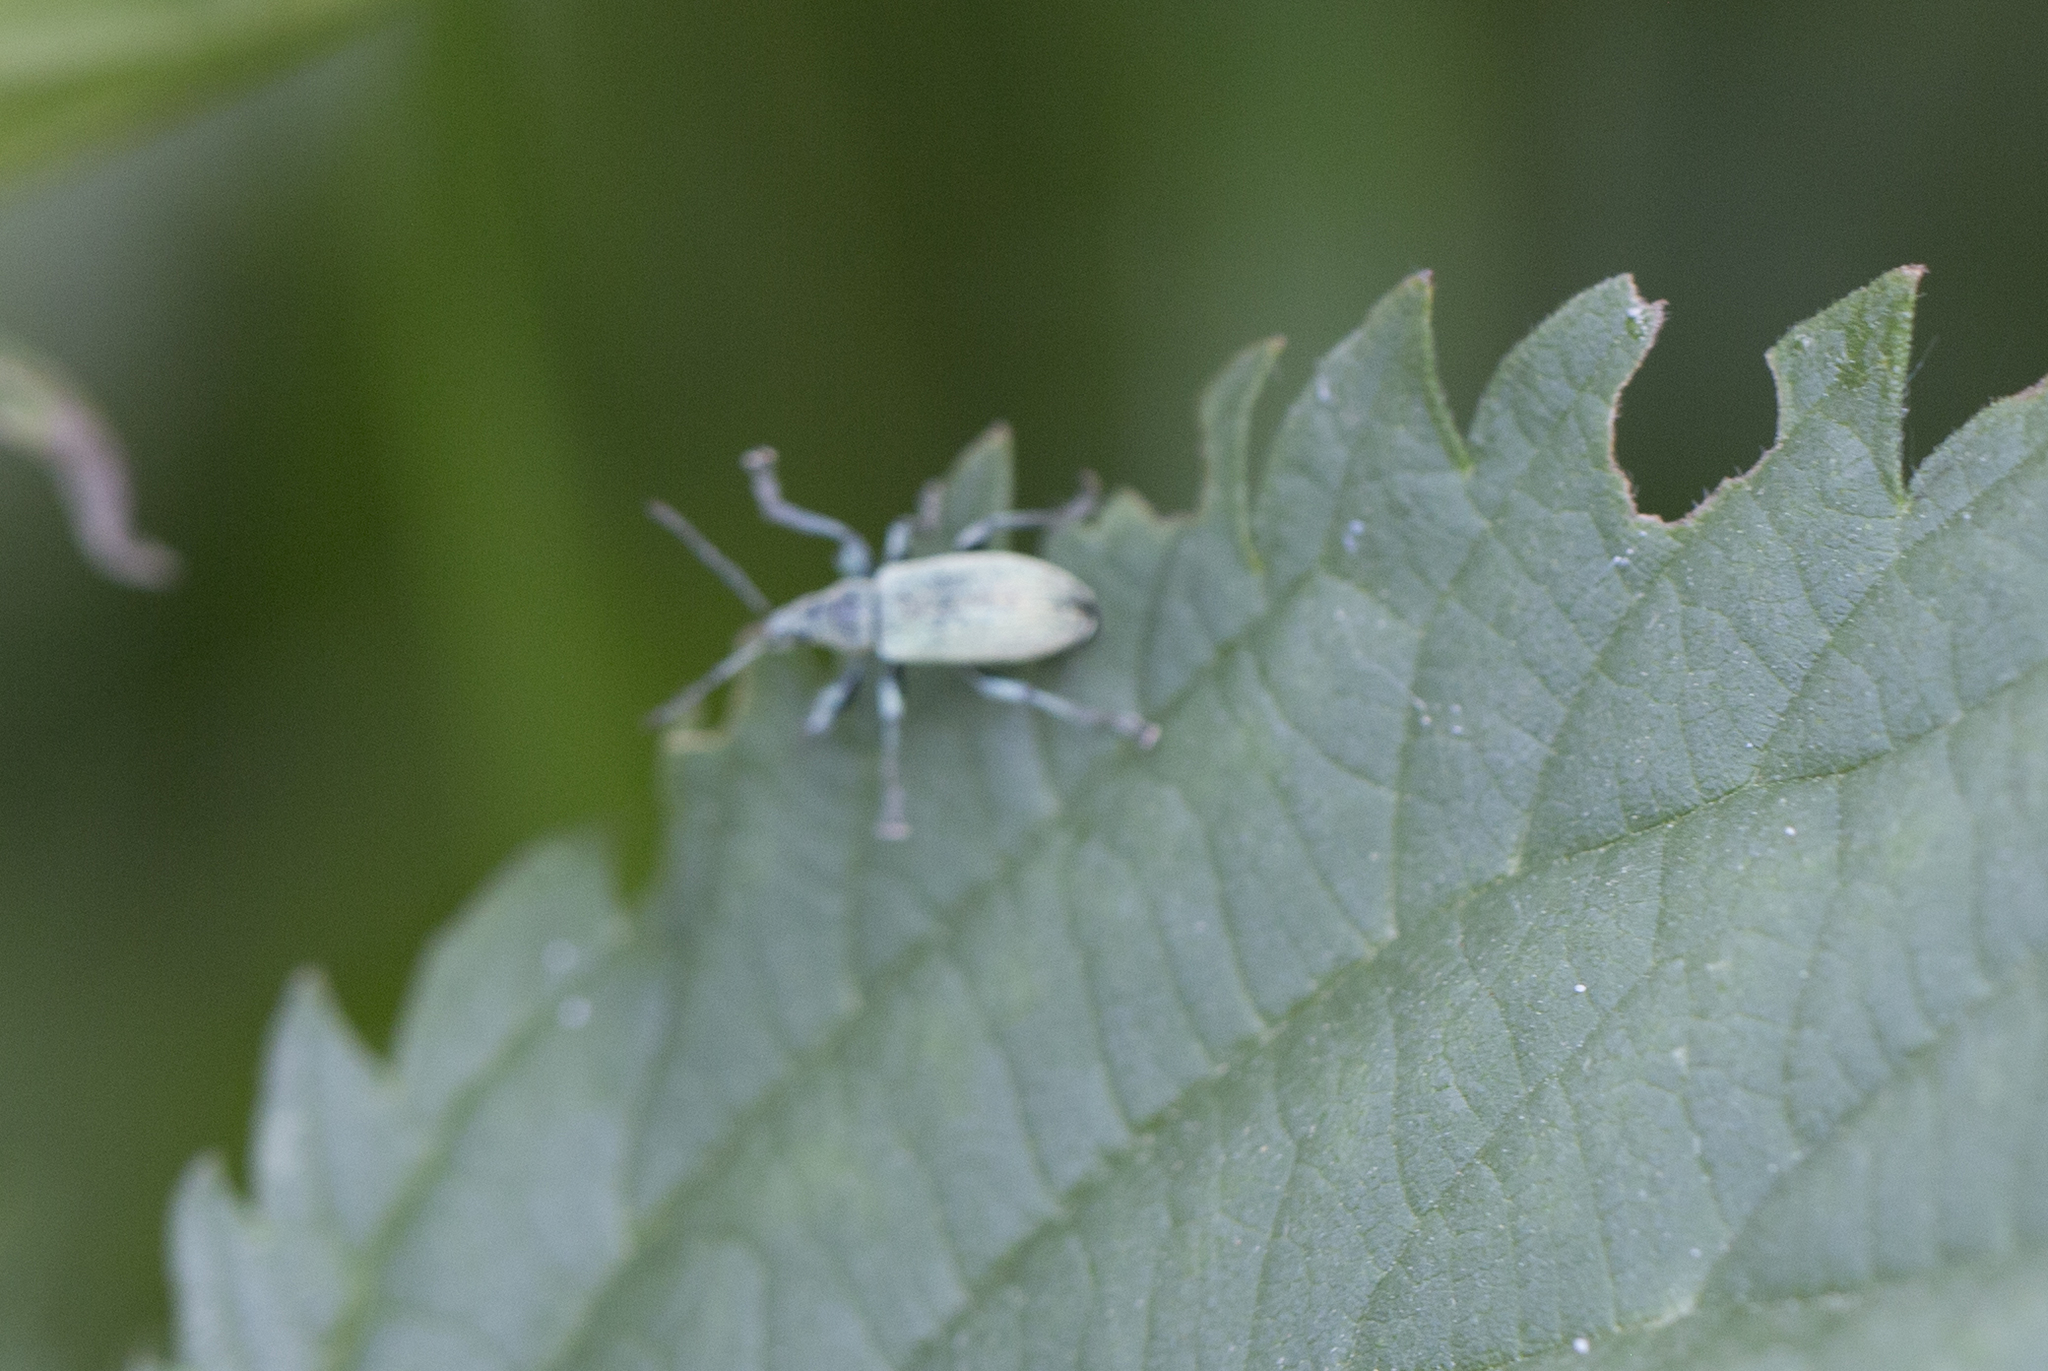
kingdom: Animalia
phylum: Arthropoda
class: Insecta
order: Coleoptera
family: Curculionidae
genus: Phyllobius
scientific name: Phyllobius pomaceus
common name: Green nettle weevil
